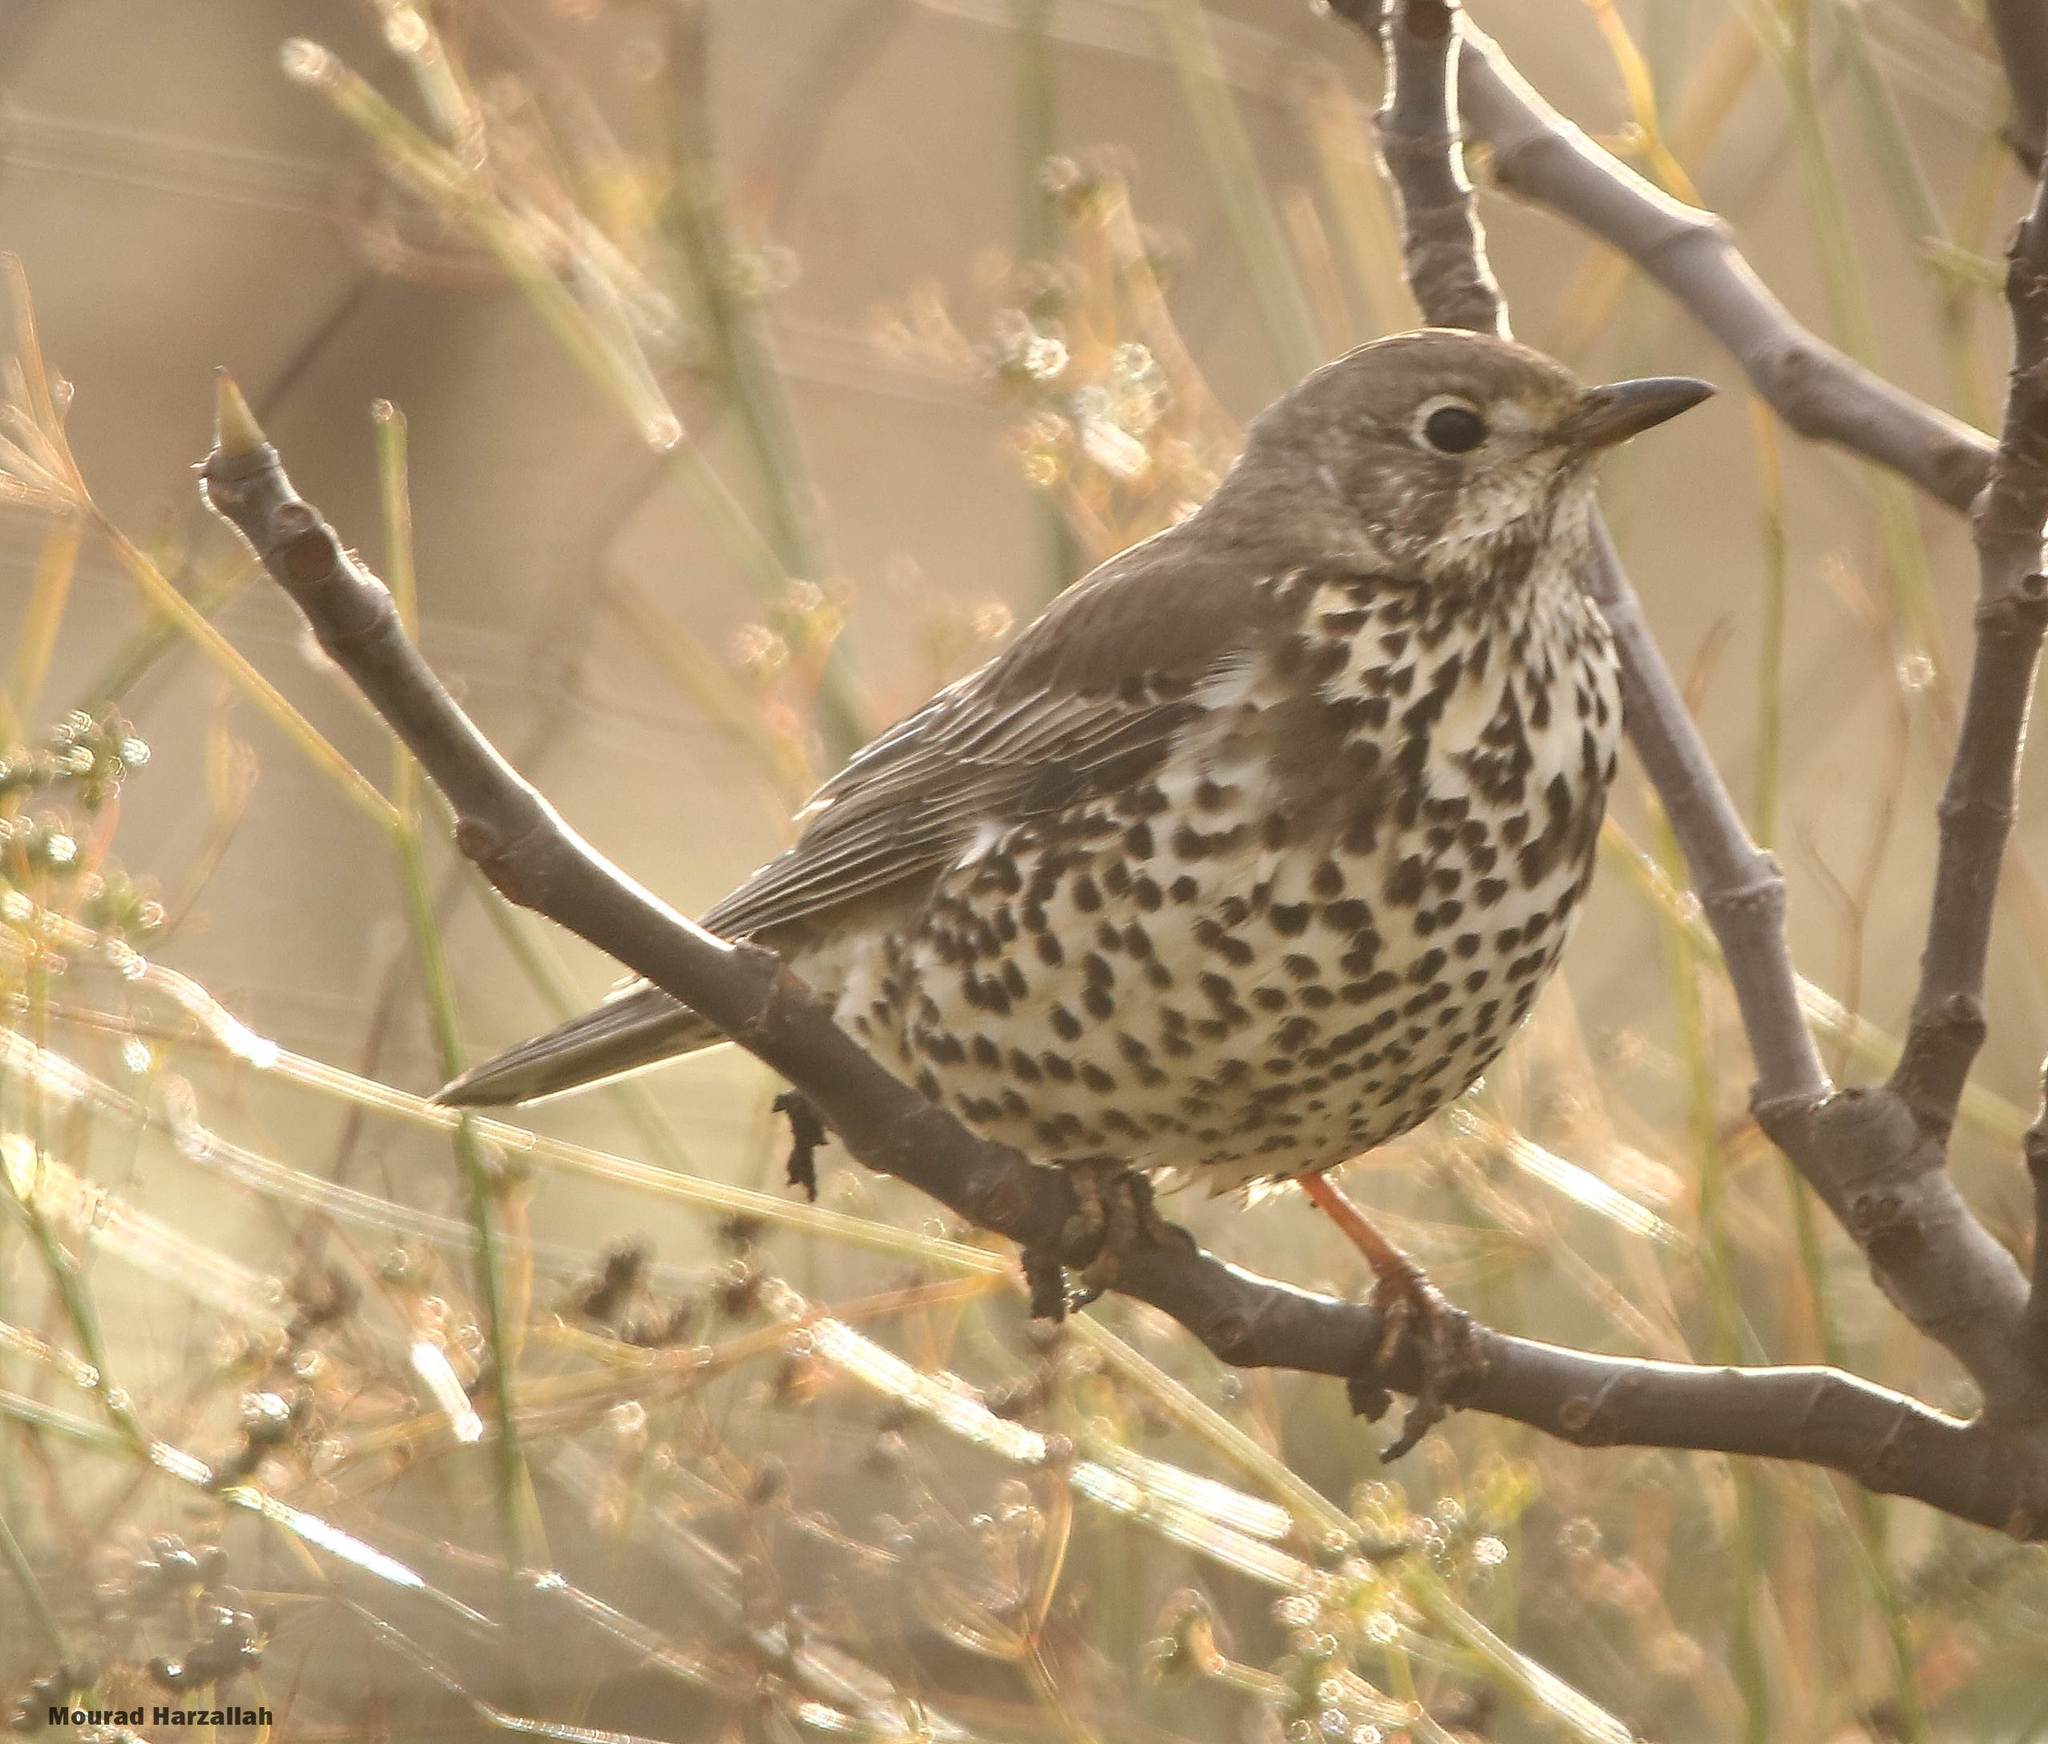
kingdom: Animalia
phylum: Chordata
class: Aves
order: Passeriformes
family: Turdidae
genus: Turdus
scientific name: Turdus viscivorus
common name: Mistle thrush
